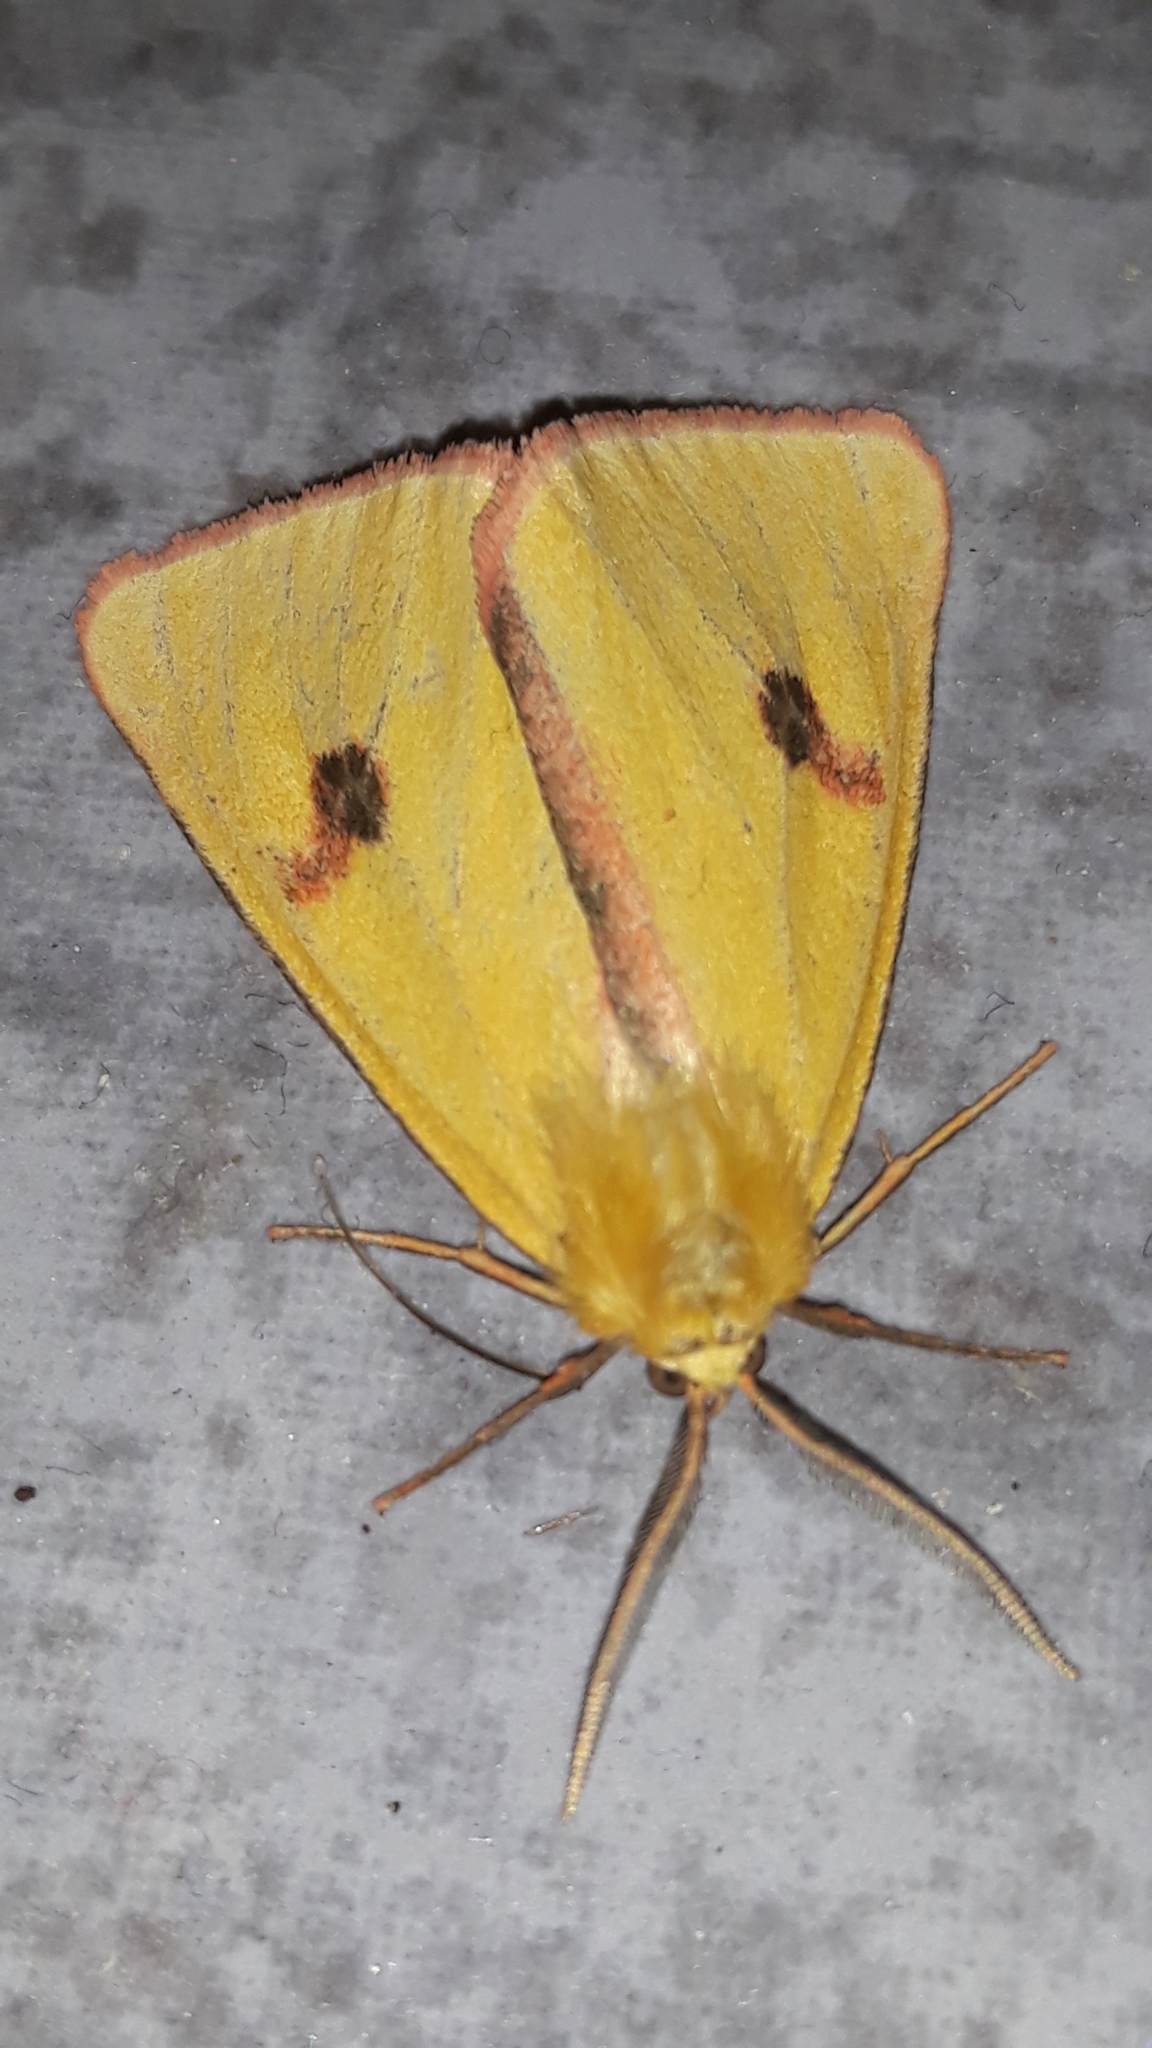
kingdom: Animalia
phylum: Arthropoda
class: Insecta
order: Lepidoptera
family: Erebidae
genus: Diacrisia
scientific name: Diacrisia sannio
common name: Clouded buff
